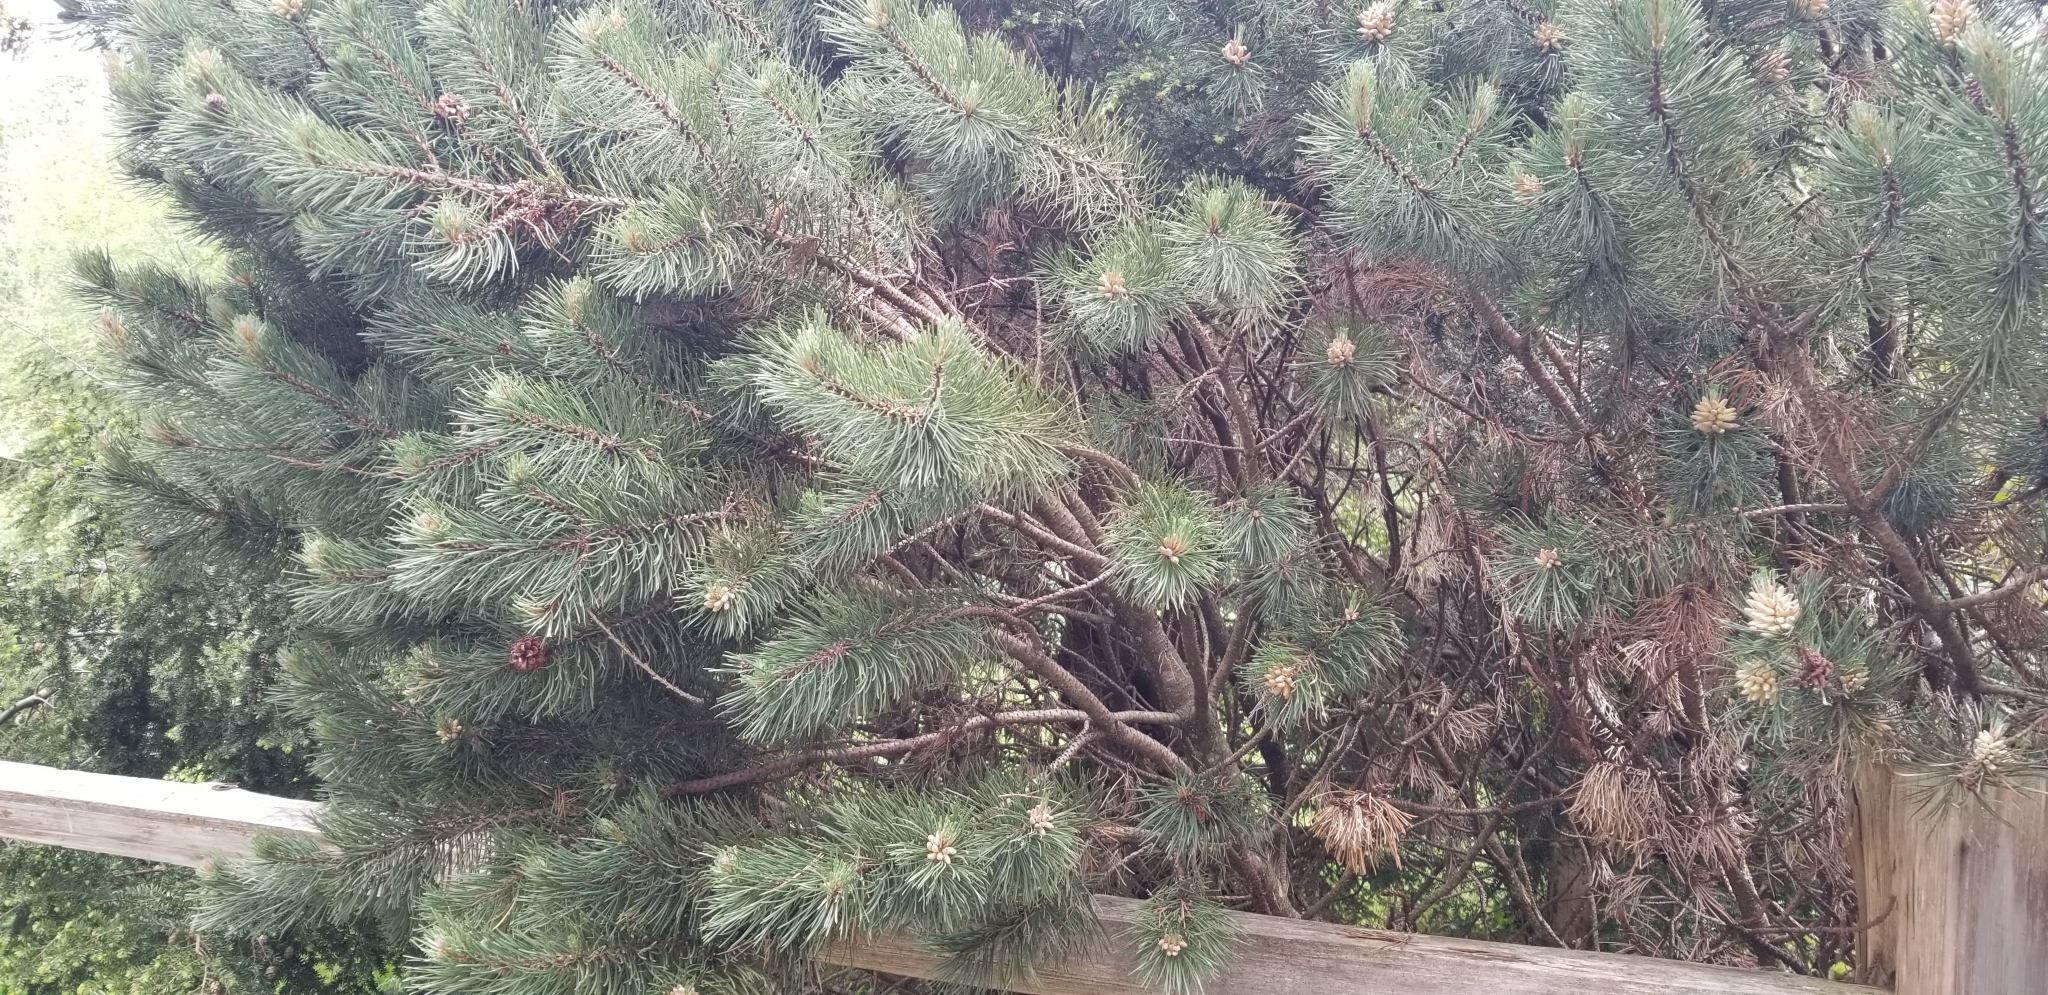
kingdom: Plantae
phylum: Tracheophyta
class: Pinopsida
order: Pinales
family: Pinaceae
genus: Pinus
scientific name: Pinus contorta
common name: Lodgepole pine
